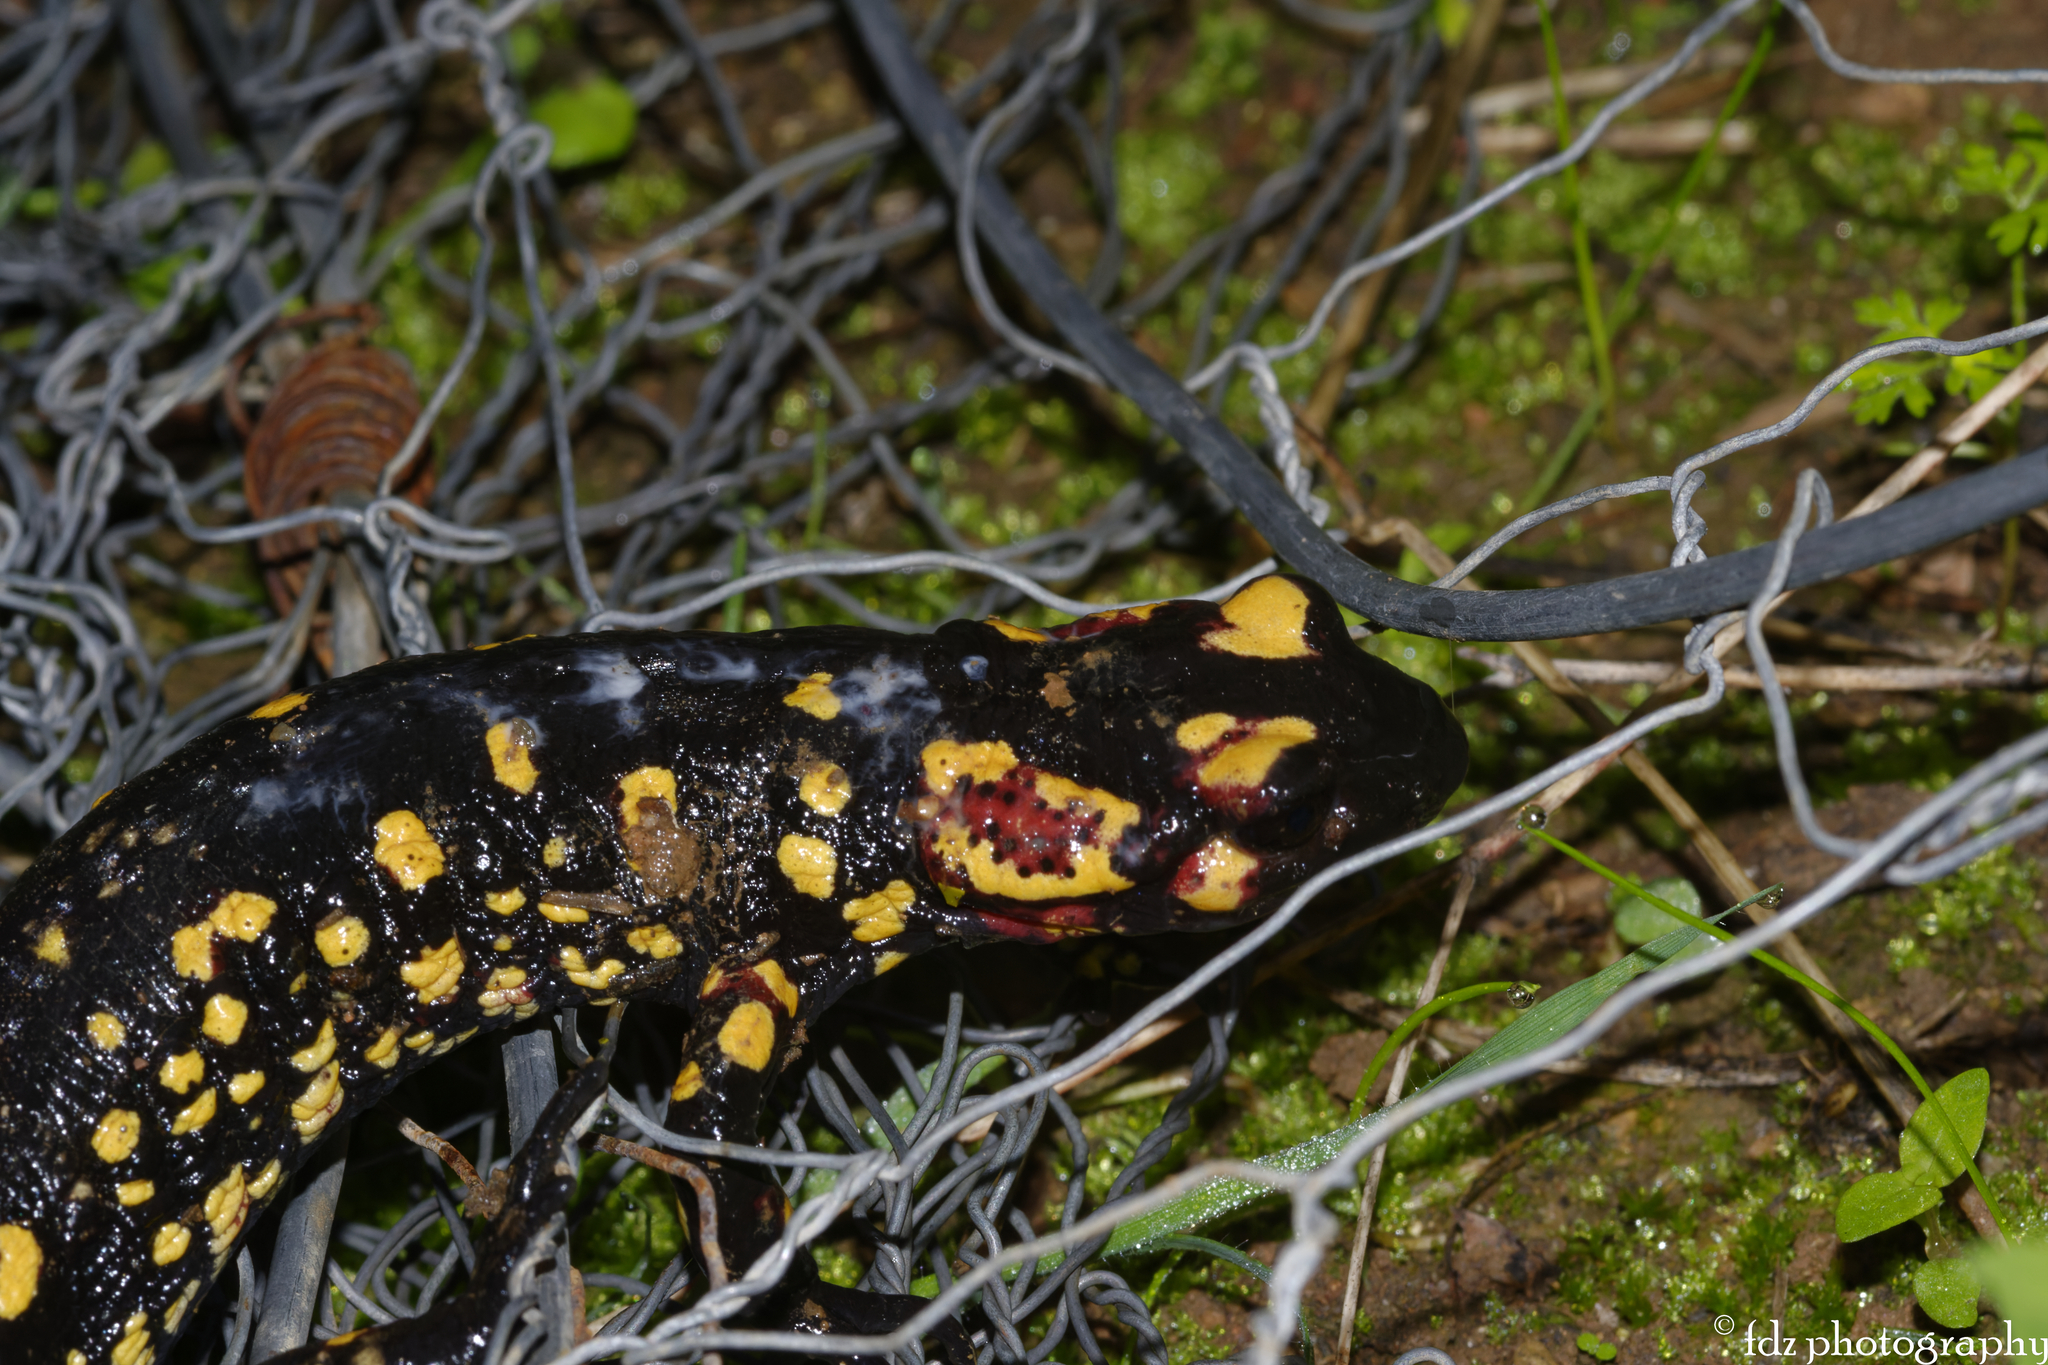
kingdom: Animalia
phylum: Chordata
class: Amphibia
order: Caudata
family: Salamandridae
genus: Salamandra
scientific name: Salamandra salamandra
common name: Fire salamander
